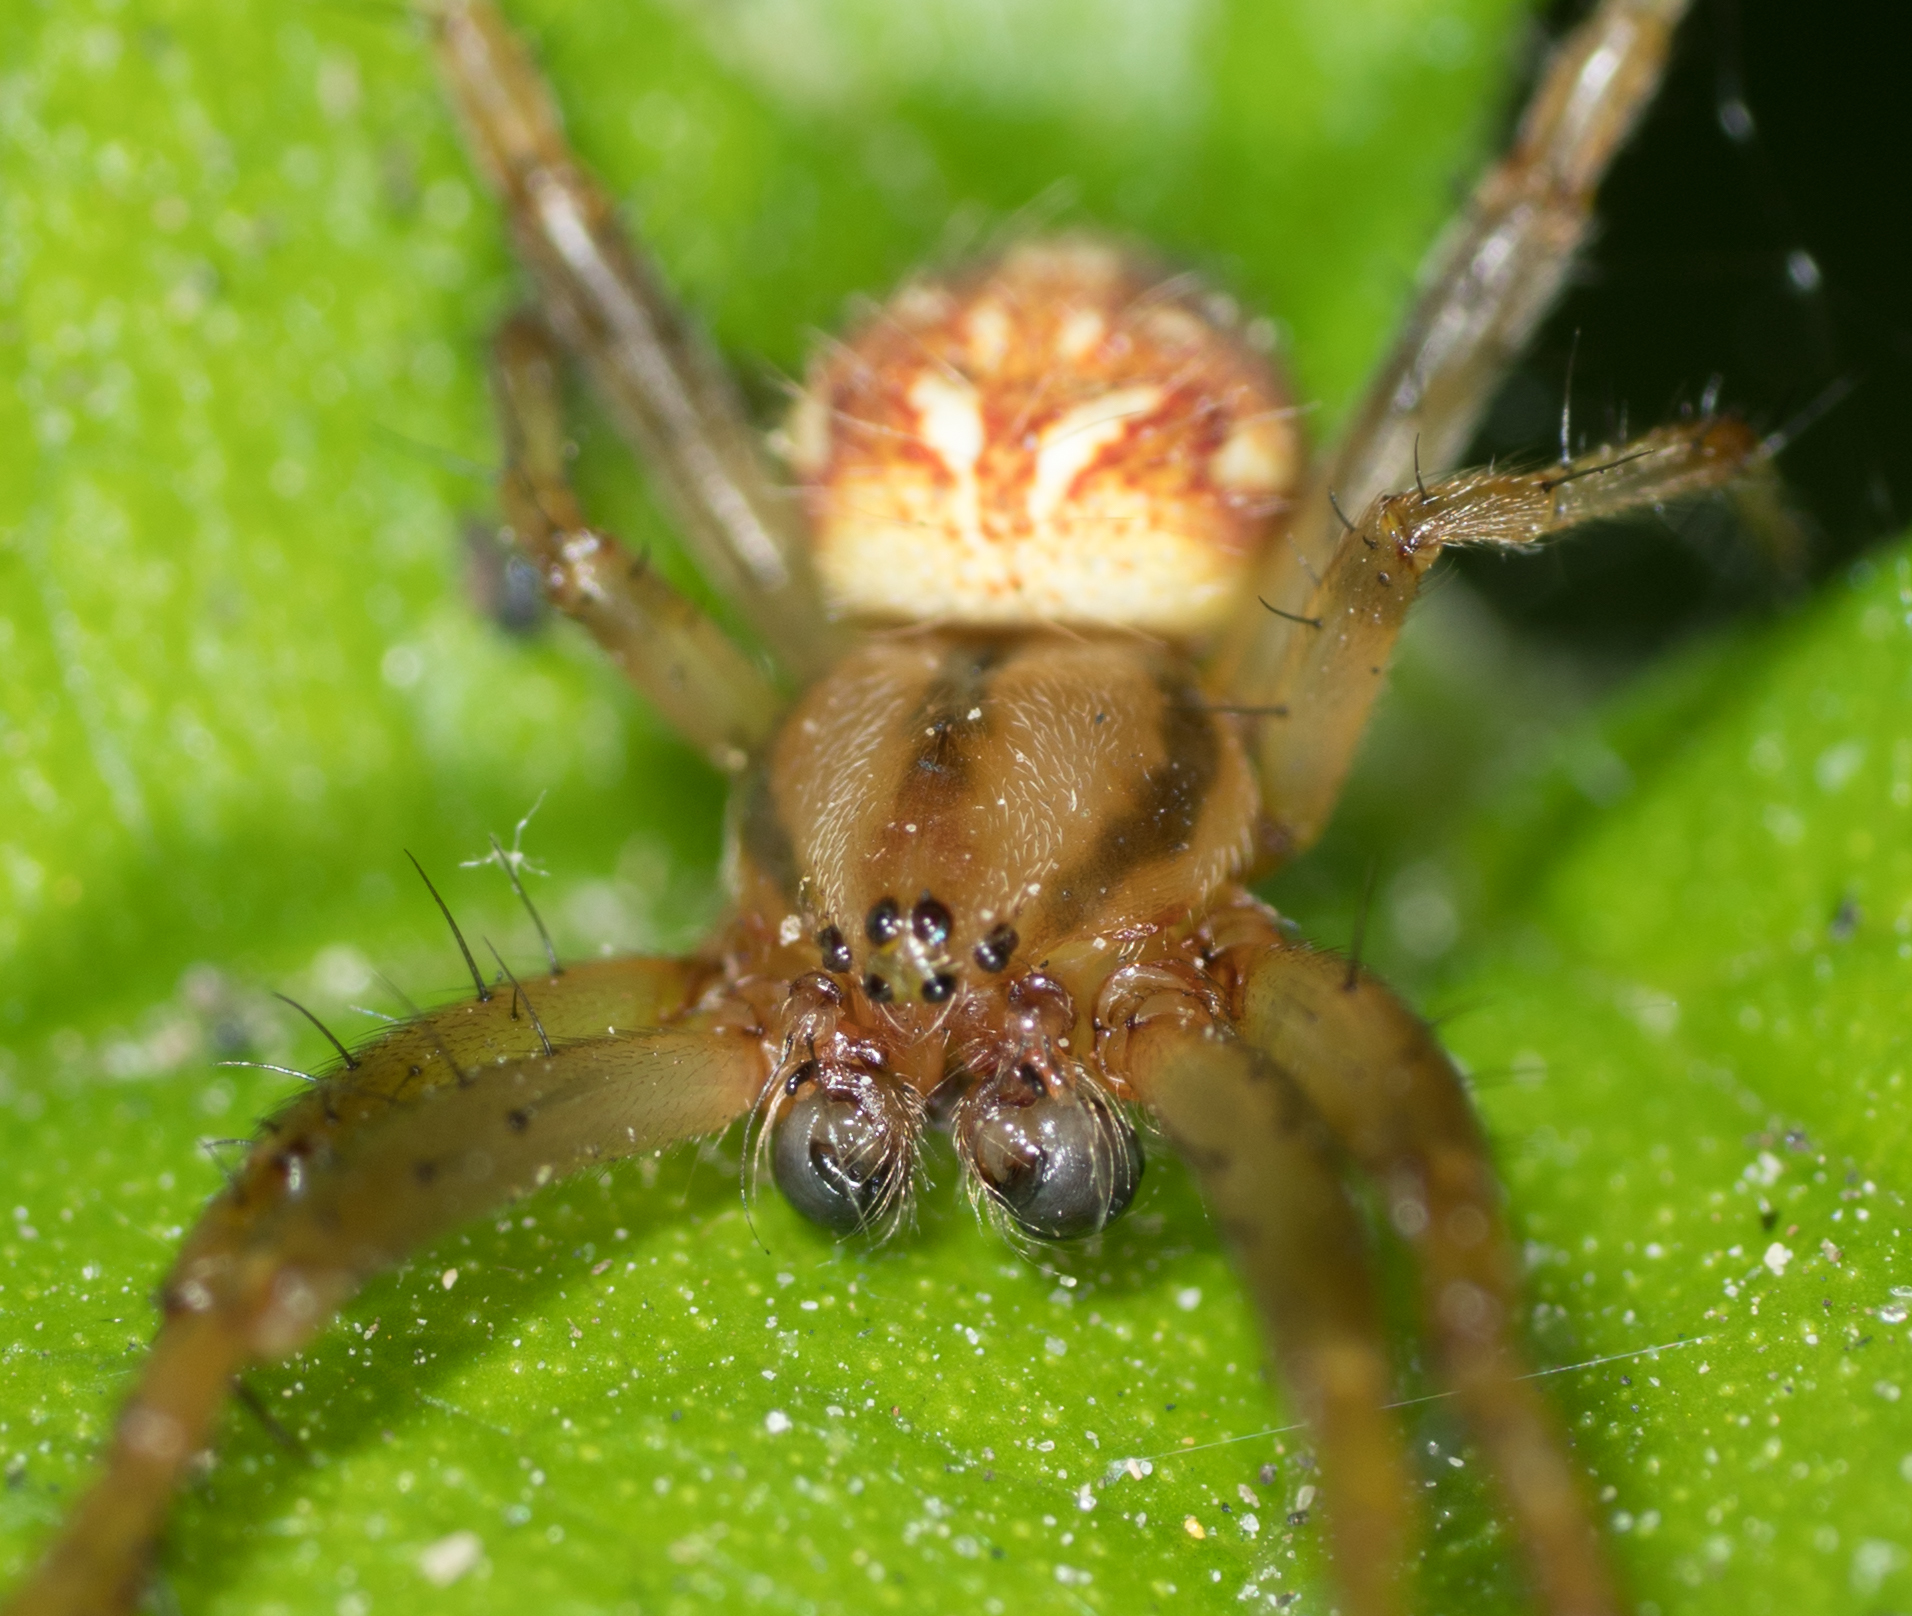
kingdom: Animalia
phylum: Arthropoda
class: Arachnida
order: Araneae
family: Araneidae
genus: Neoscona
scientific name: Neoscona arabesca
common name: Orb weavers
